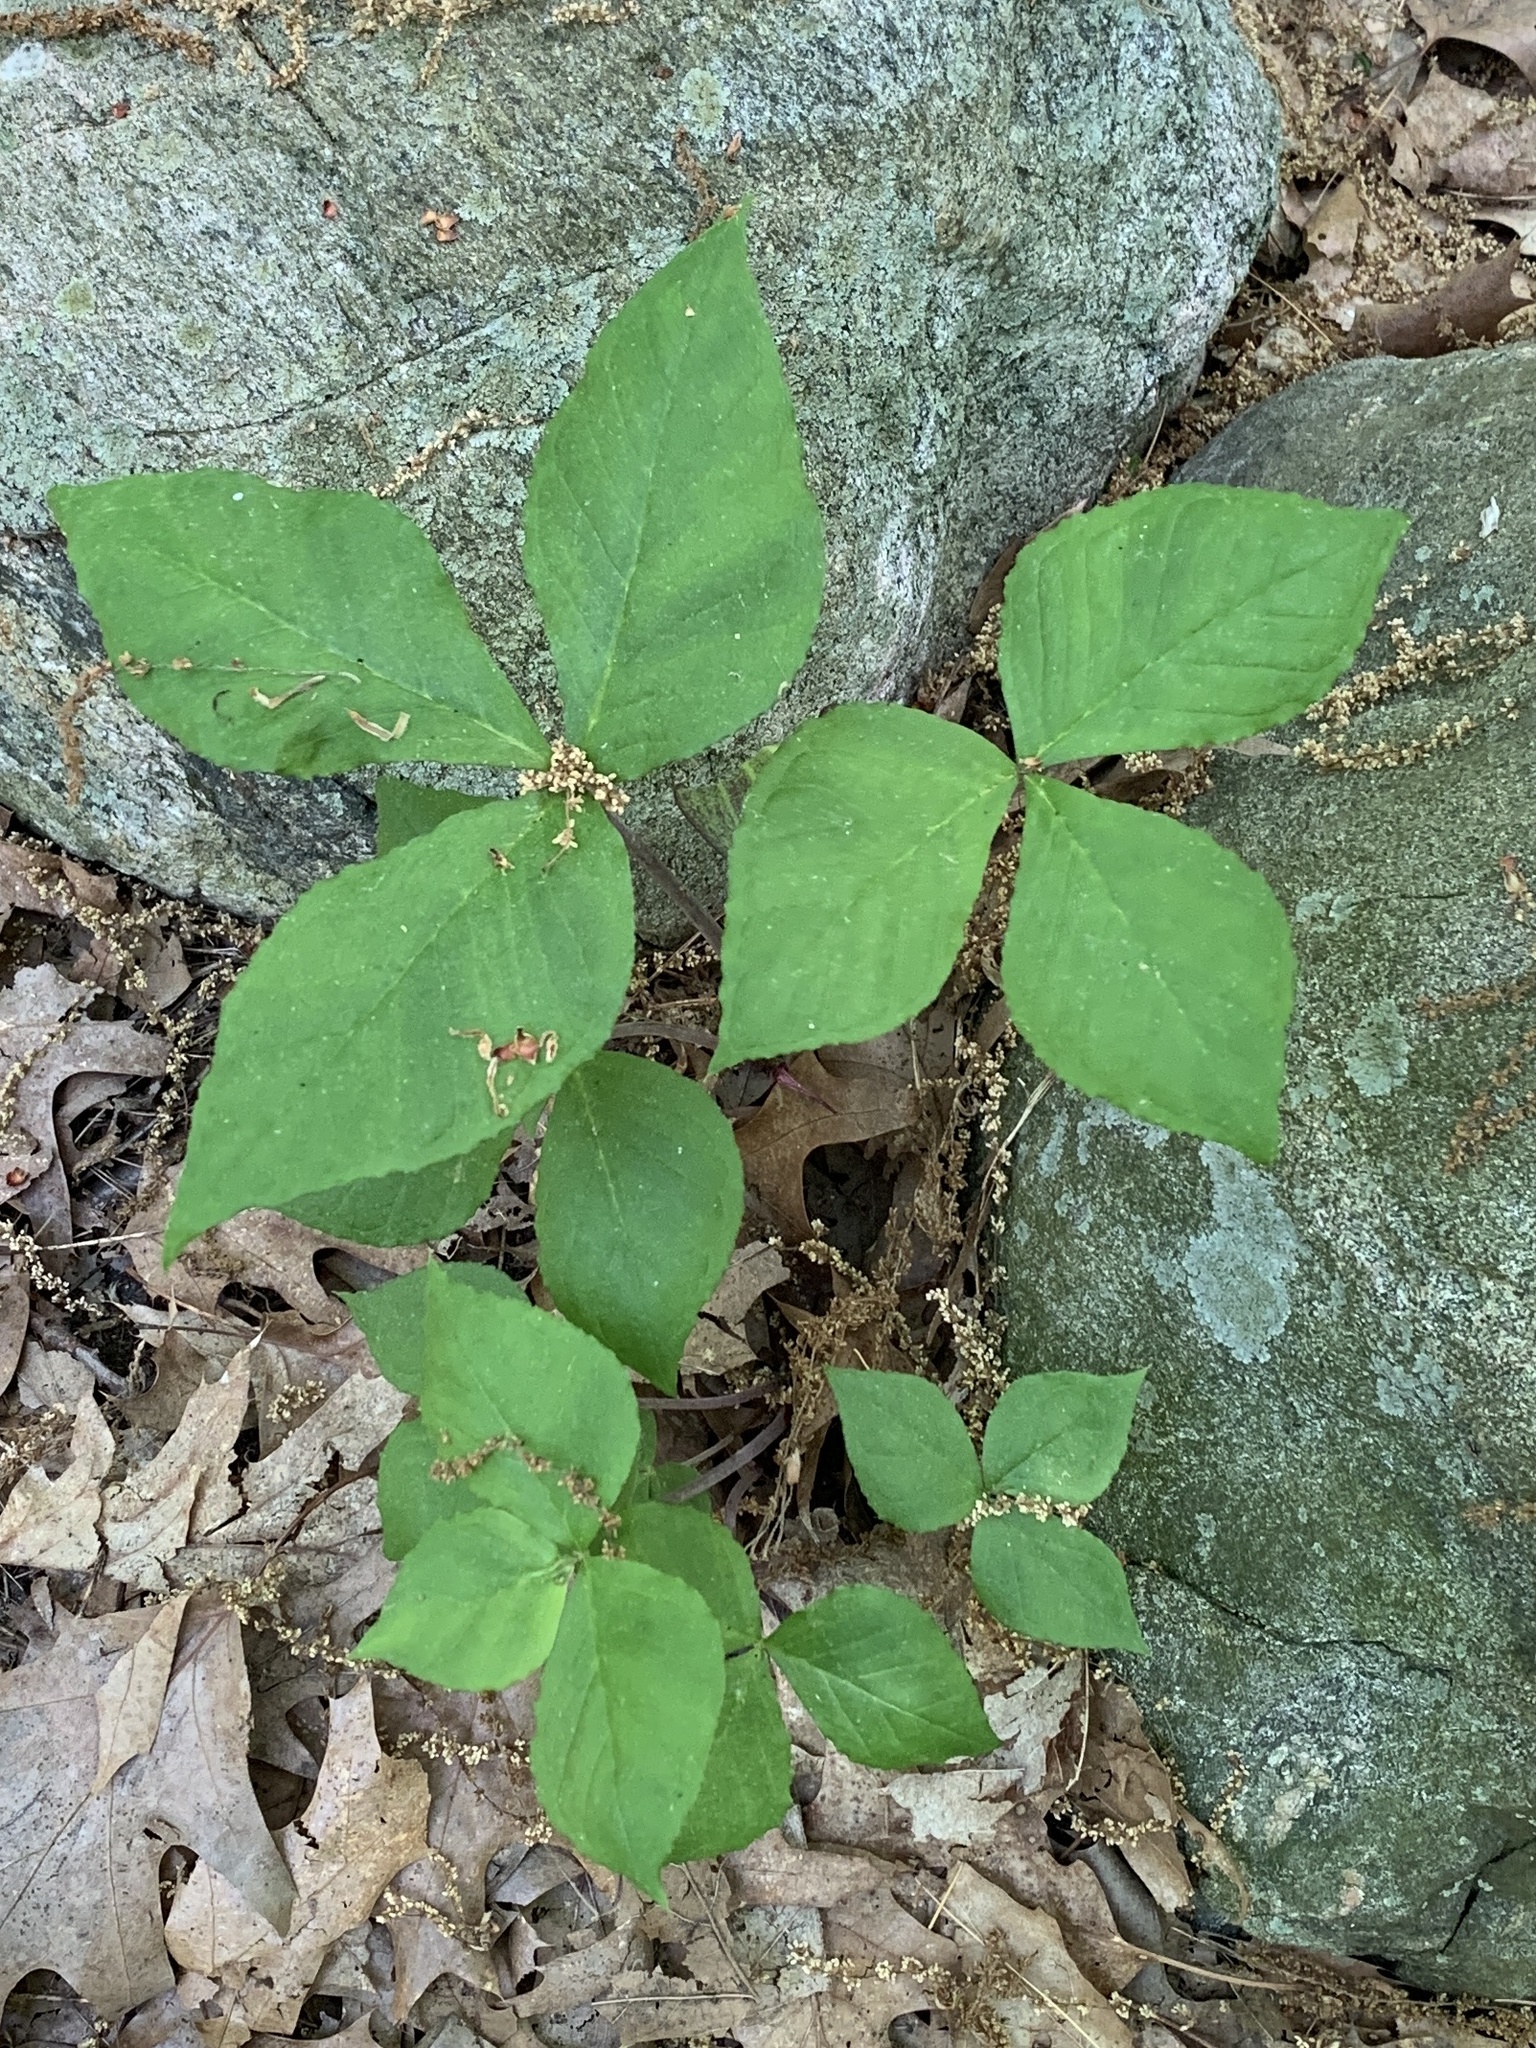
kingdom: Plantae
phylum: Tracheophyta
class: Liliopsida
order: Alismatales
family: Araceae
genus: Arisaema
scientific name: Arisaema triphyllum
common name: Jack-in-the-pulpit
